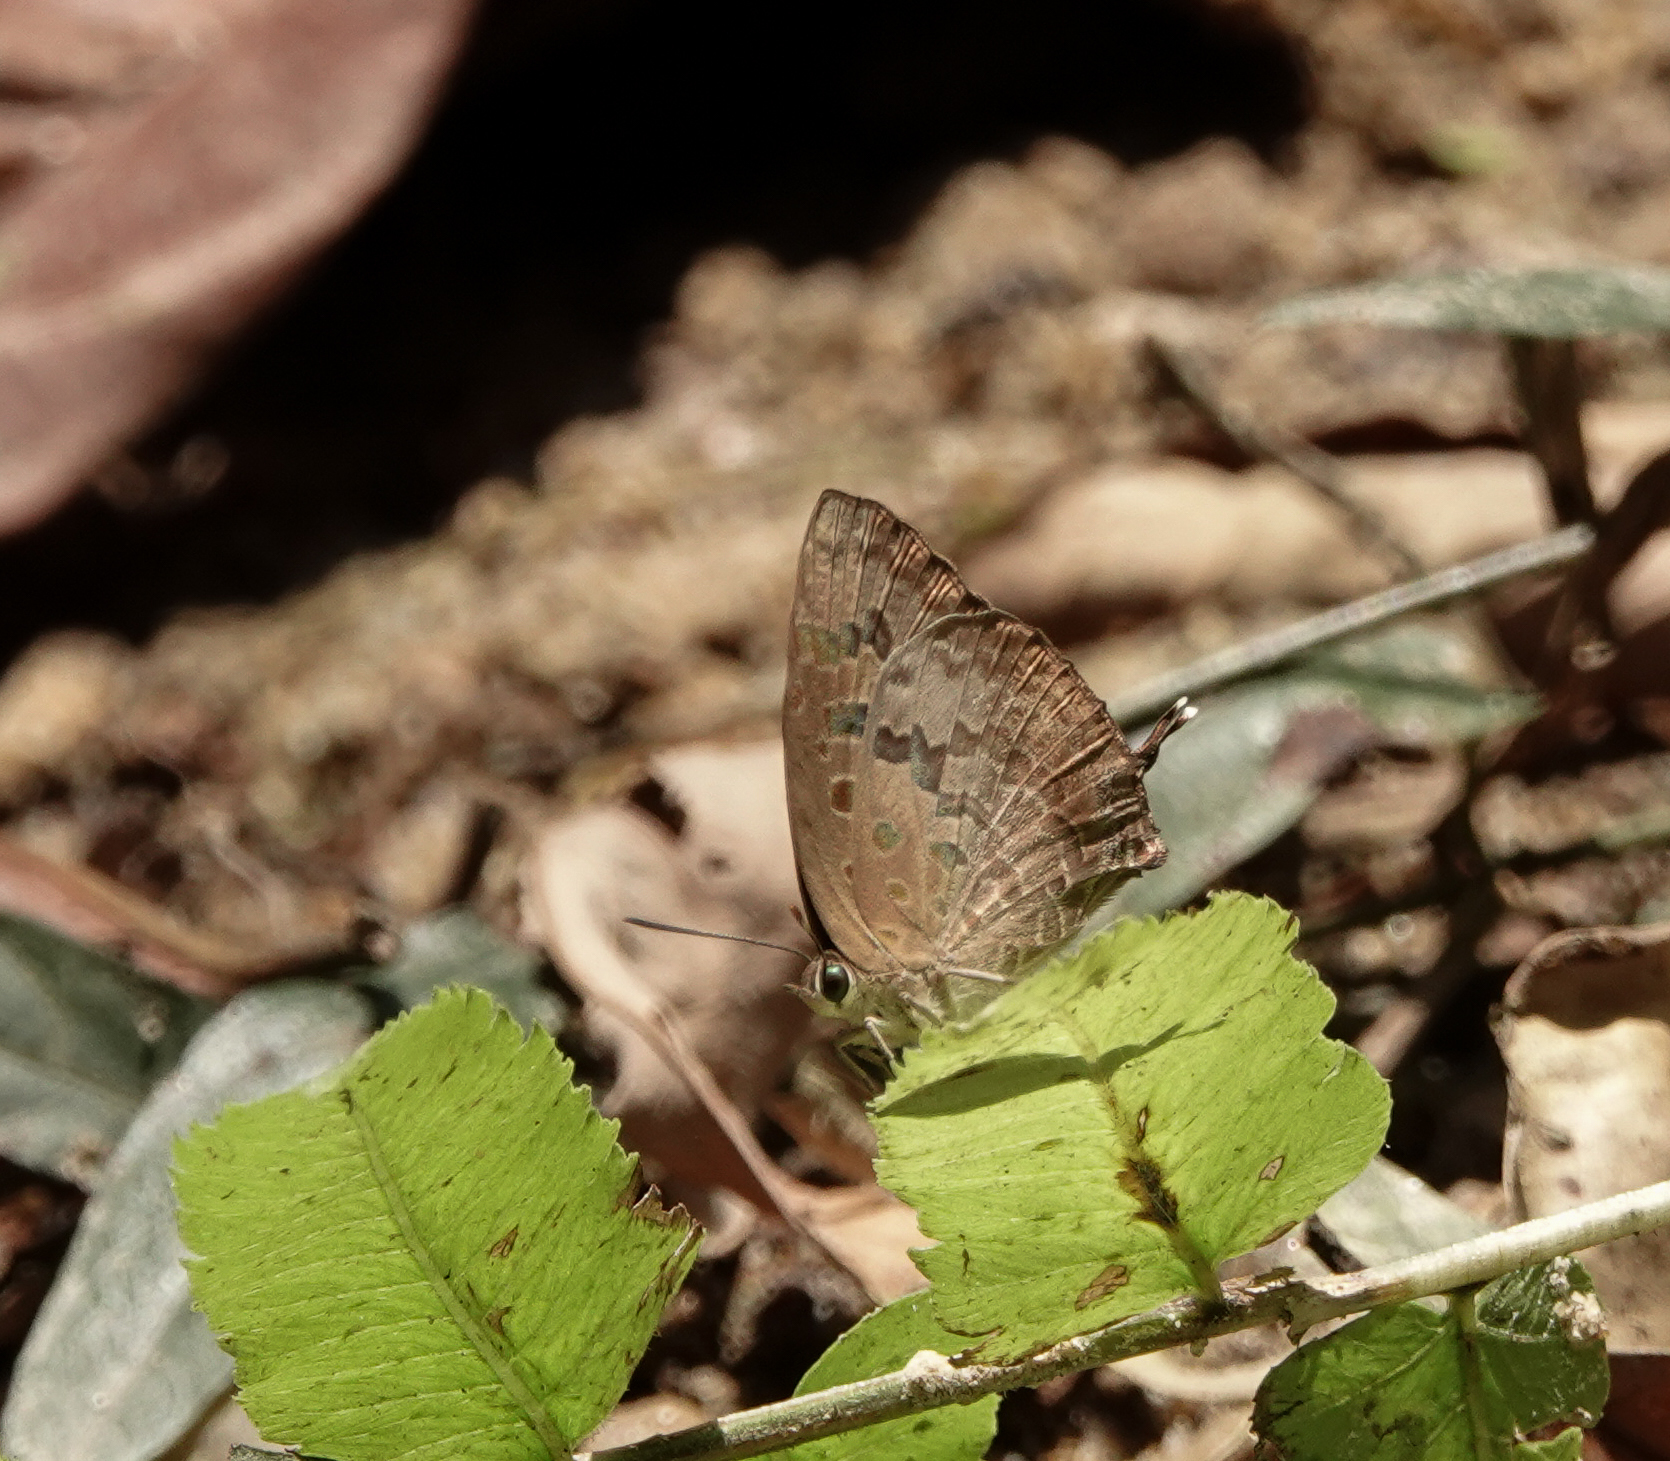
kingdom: Animalia
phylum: Arthropoda
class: Insecta
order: Lepidoptera
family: Lycaenidae
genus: Arhopala
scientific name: Arhopala eumolphus
